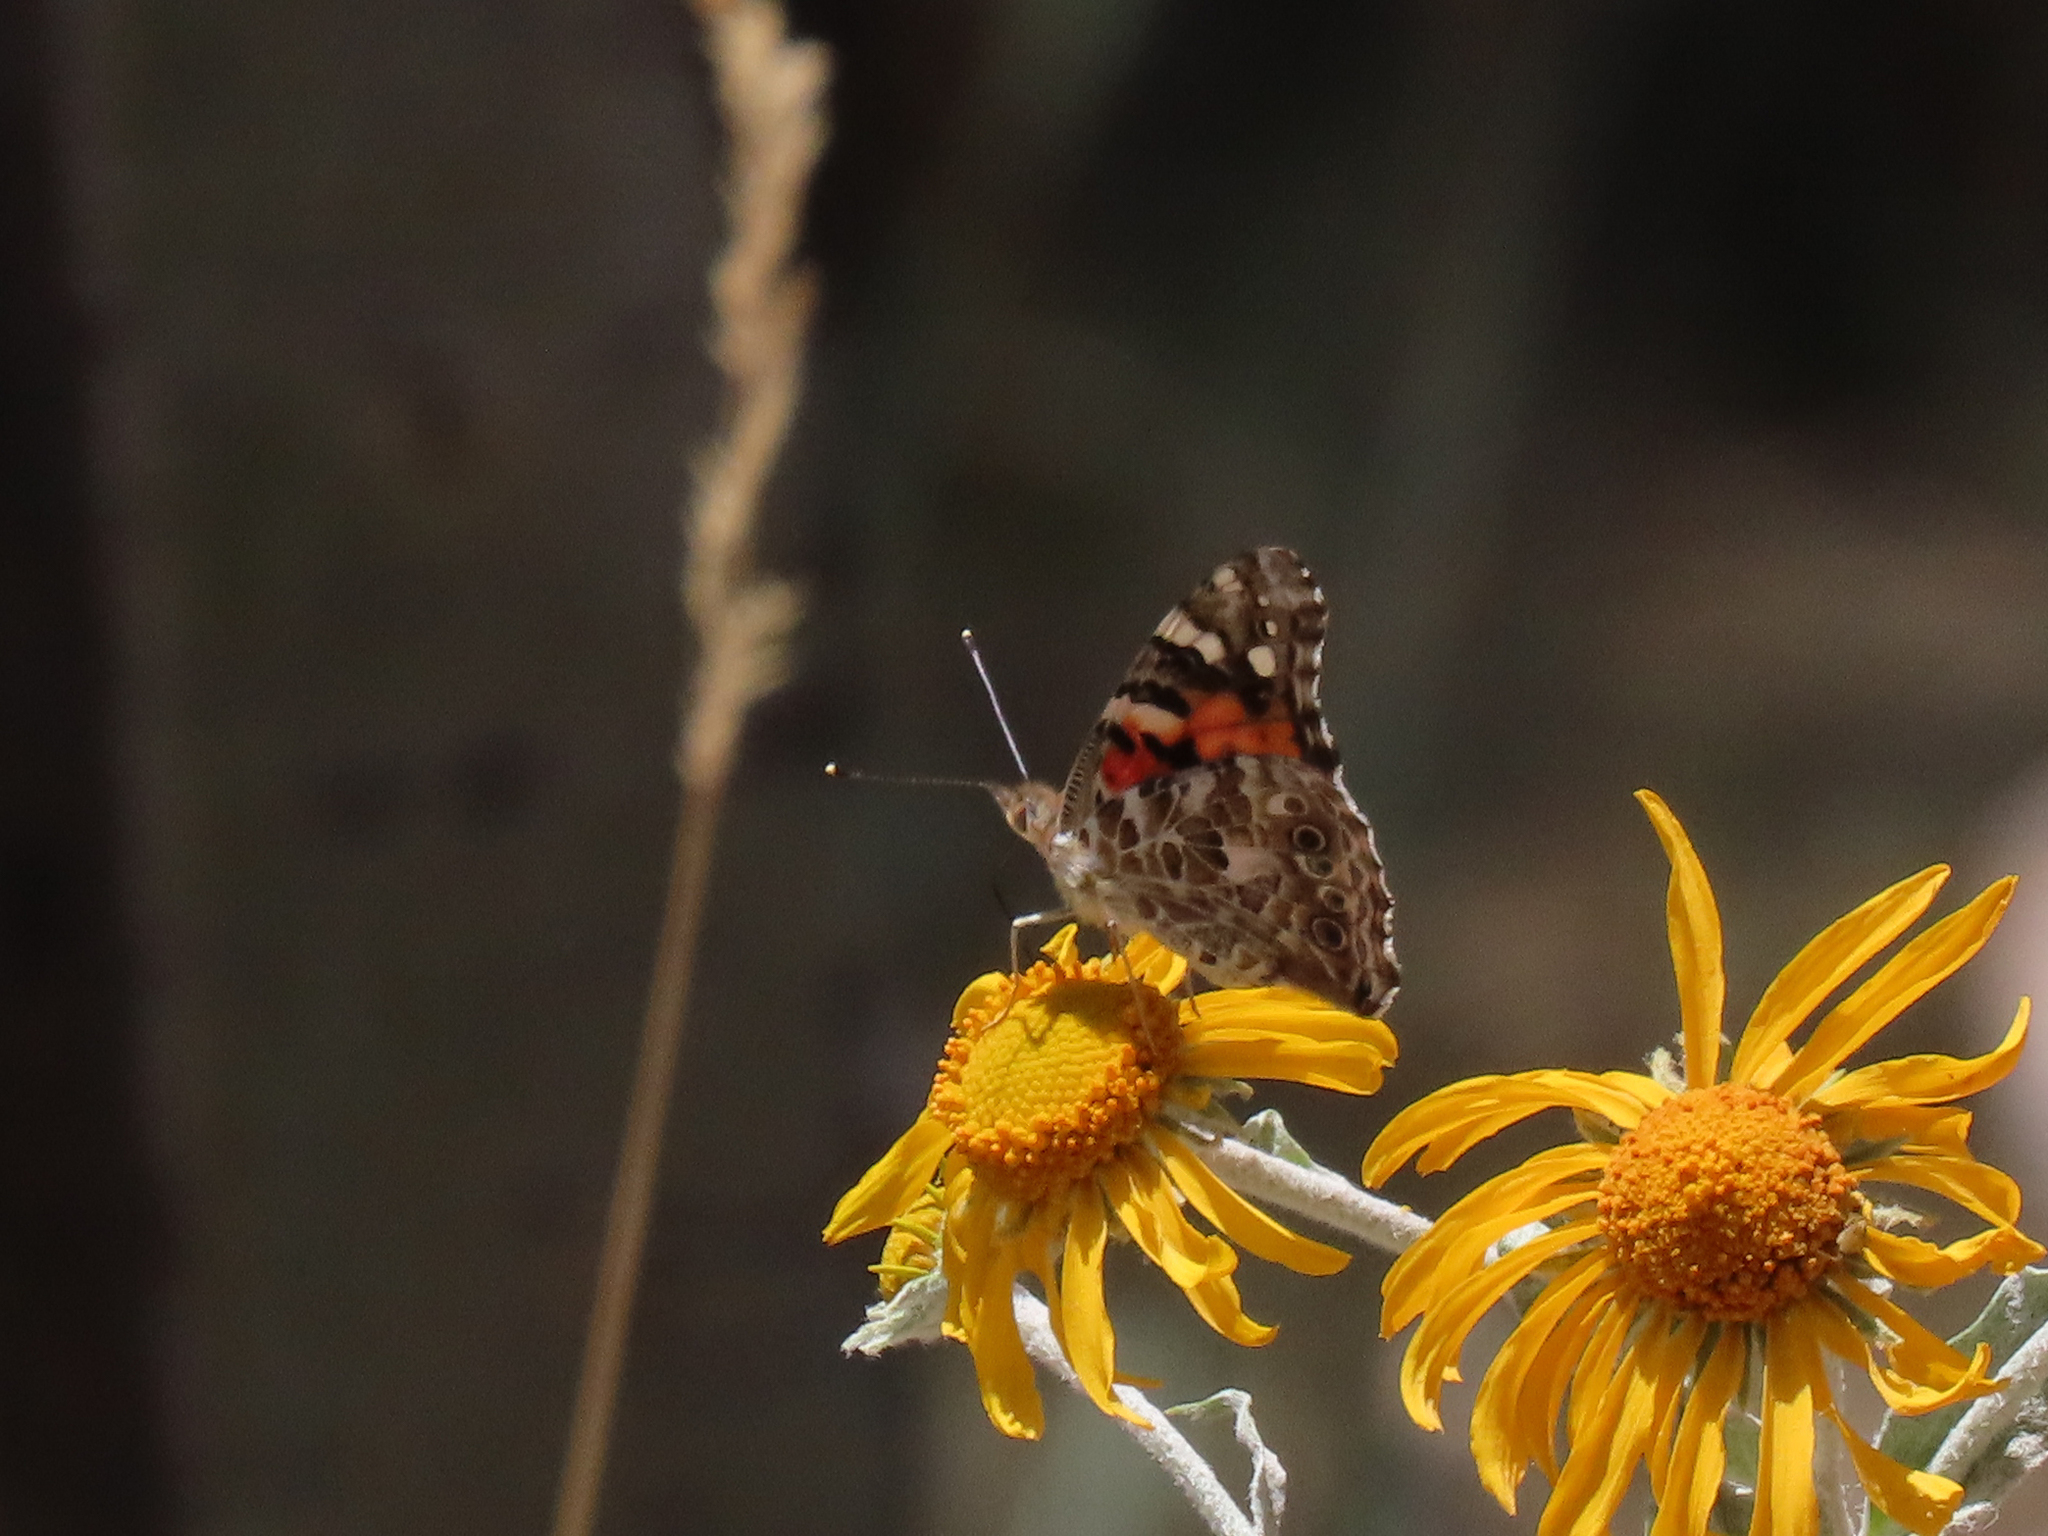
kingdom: Animalia
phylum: Arthropoda
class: Insecta
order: Lepidoptera
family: Nymphalidae
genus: Vanessa
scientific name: Vanessa cardui
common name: Painted lady
